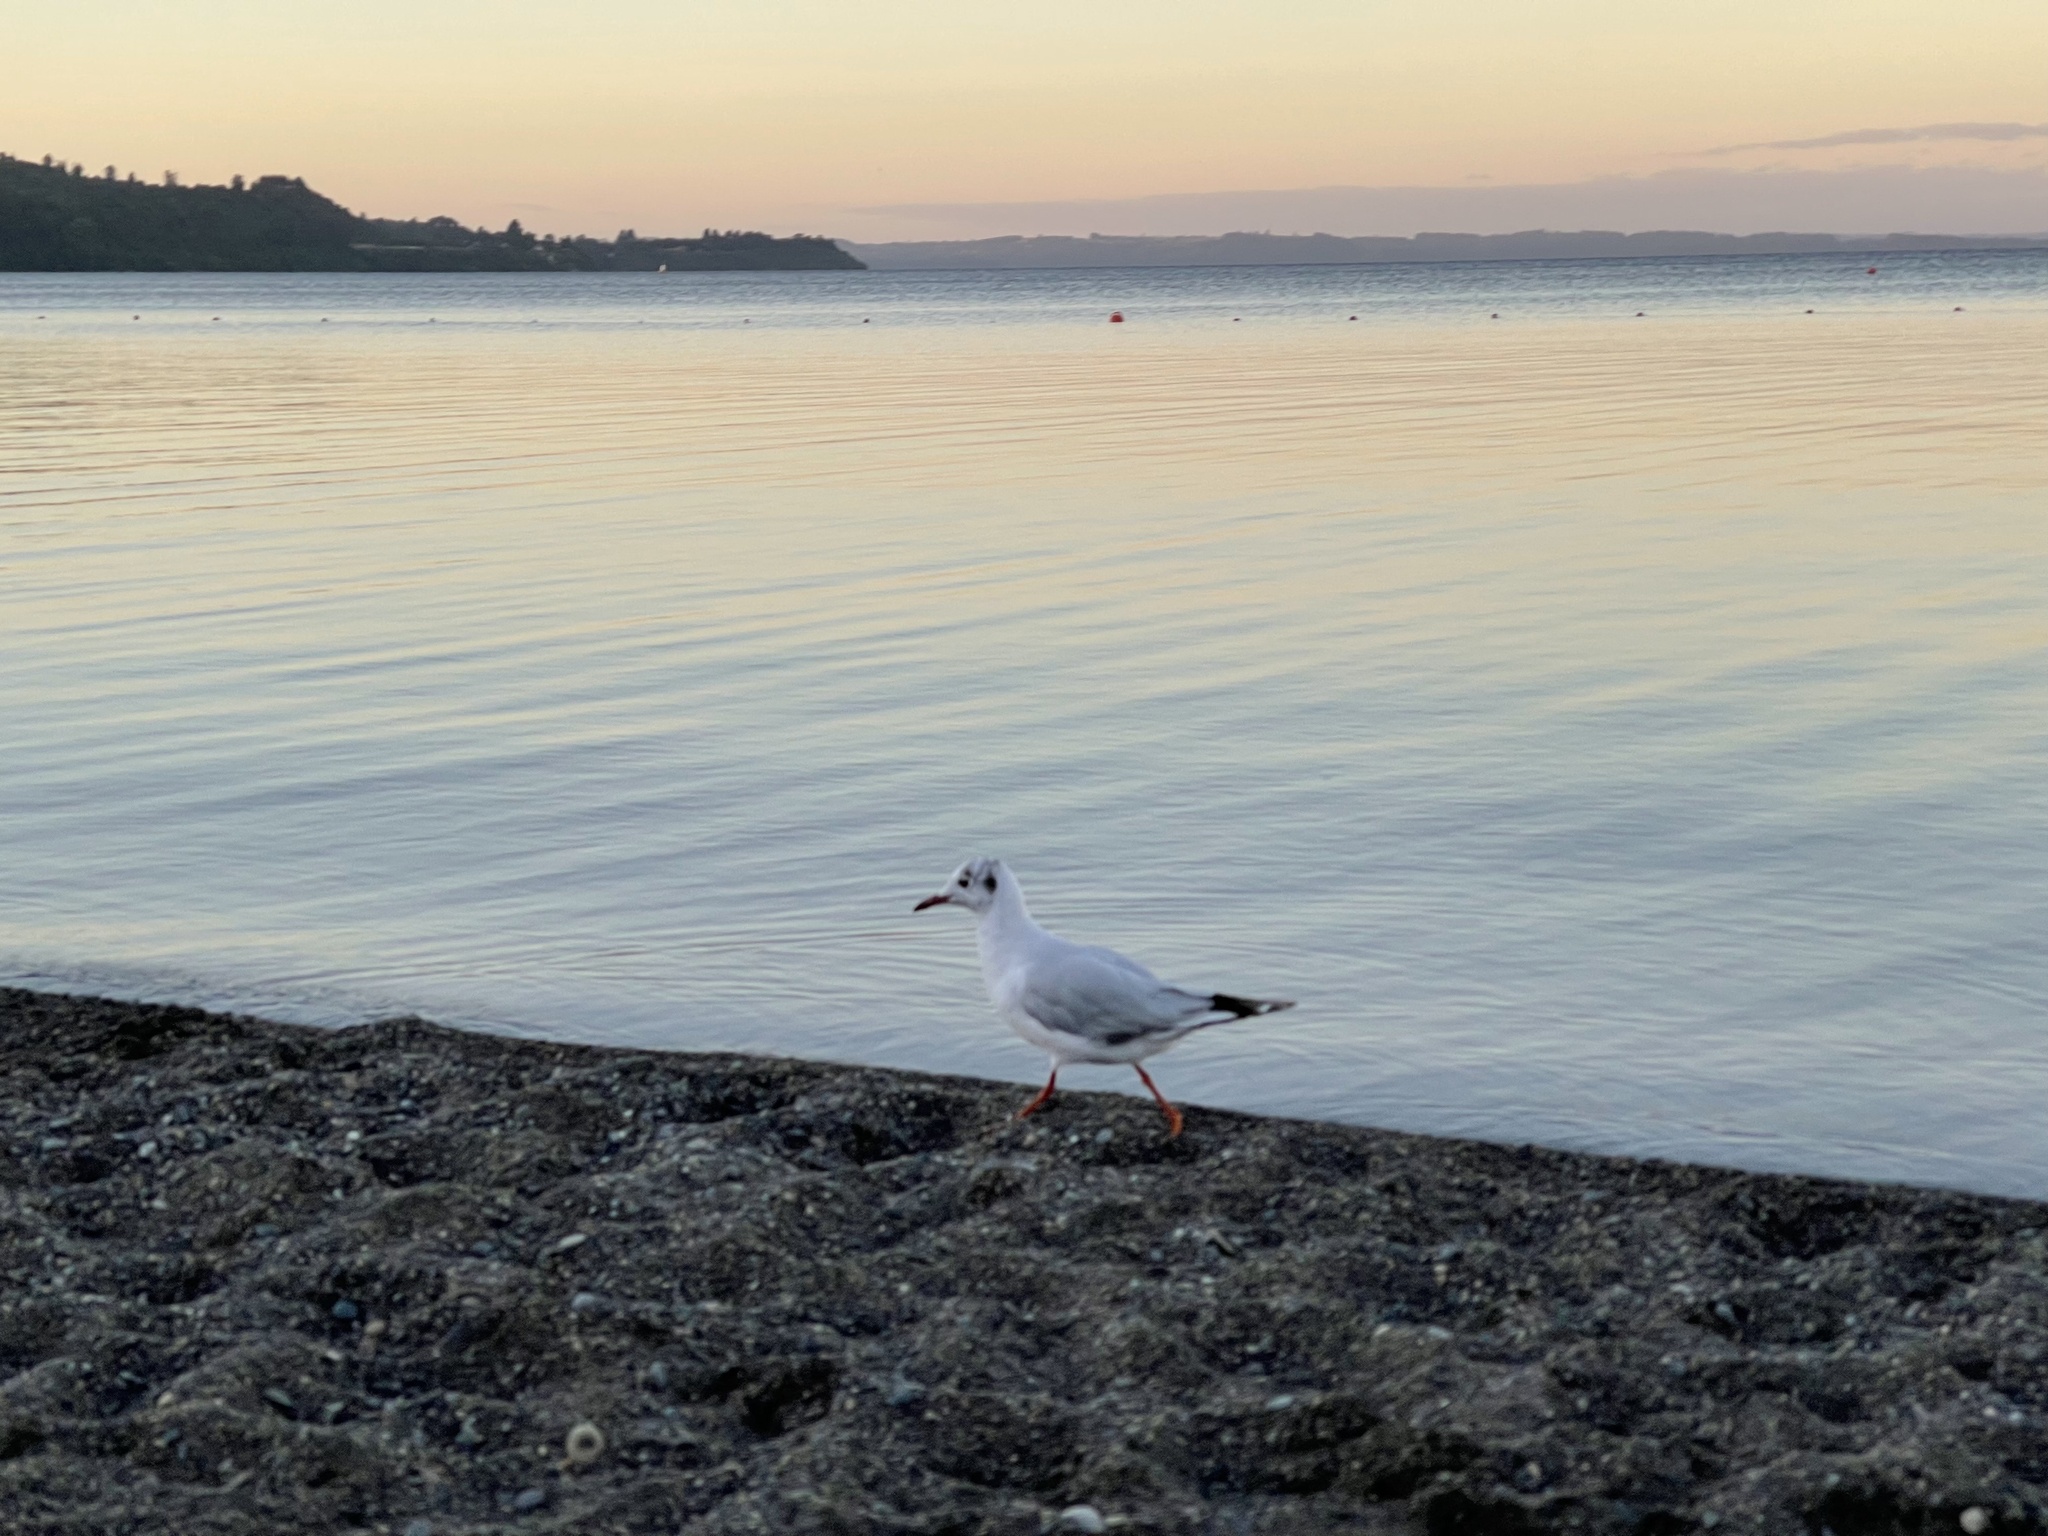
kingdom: Animalia
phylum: Chordata
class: Aves
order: Charadriiformes
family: Laridae
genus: Chroicocephalus
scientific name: Chroicocephalus maculipennis
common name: Brown-hooded gull
